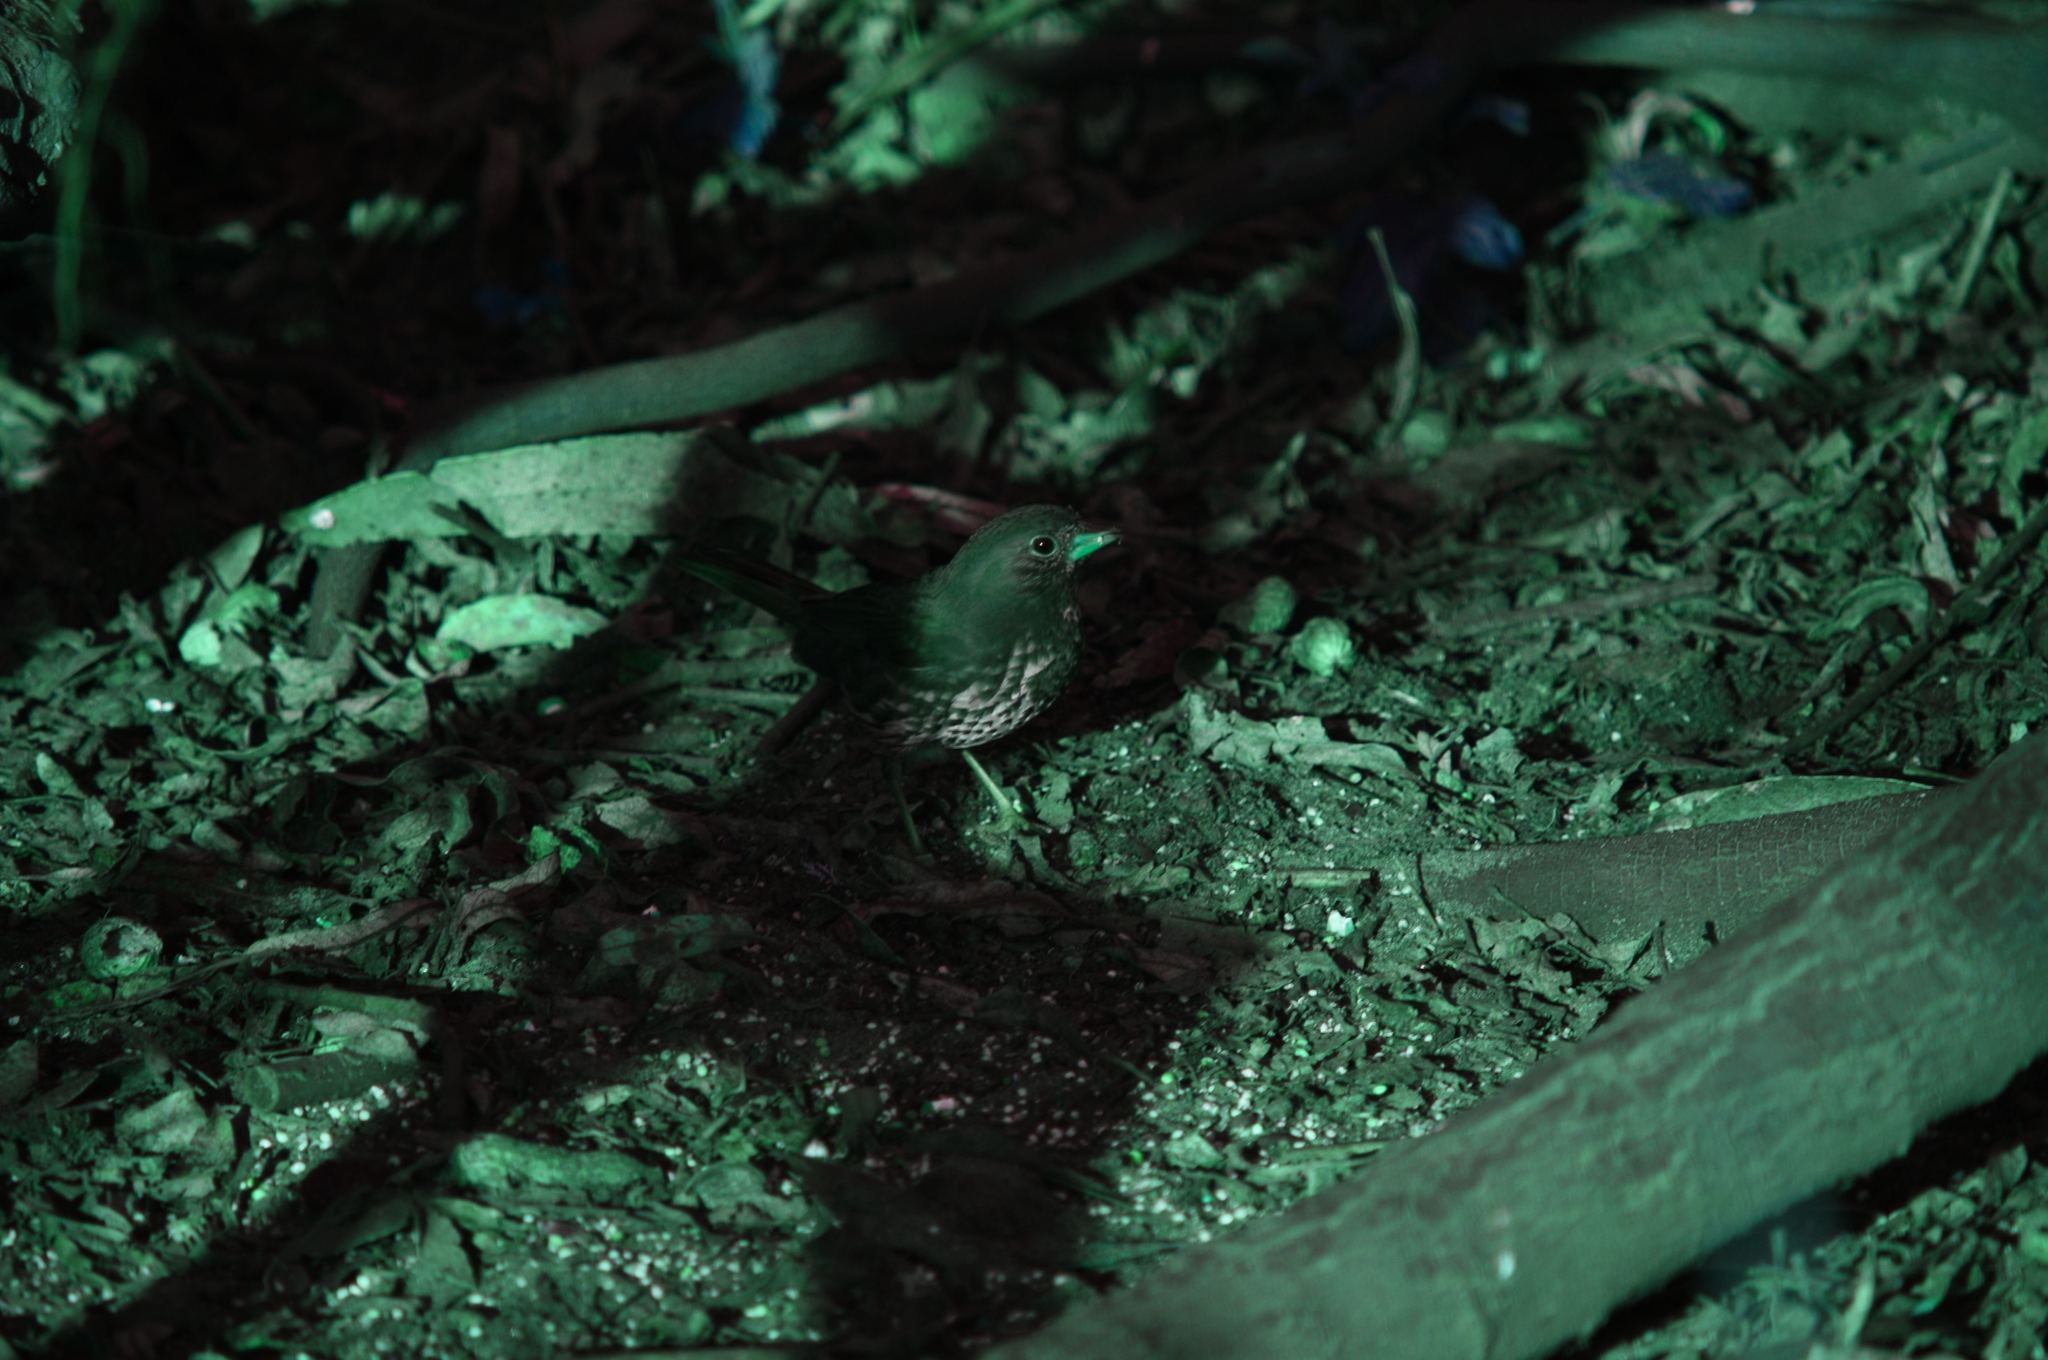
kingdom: Animalia
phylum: Chordata
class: Aves
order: Passeriformes
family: Passerellidae
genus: Passerella
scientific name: Passerella iliaca
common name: Fox sparrow
